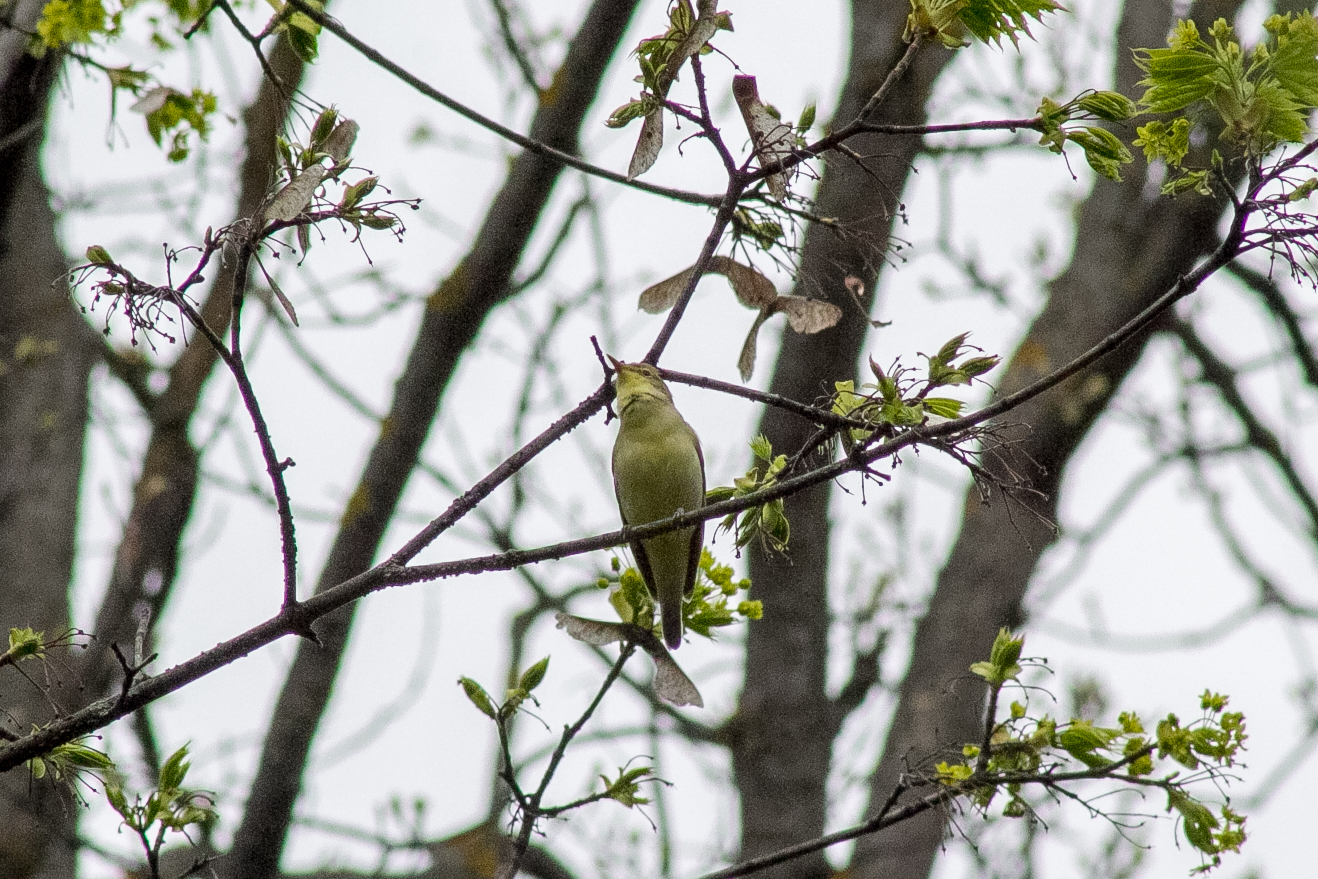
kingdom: Animalia
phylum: Chordata
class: Aves
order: Passeriformes
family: Acrocephalidae
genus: Hippolais
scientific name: Hippolais icterina
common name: Icterine warbler
